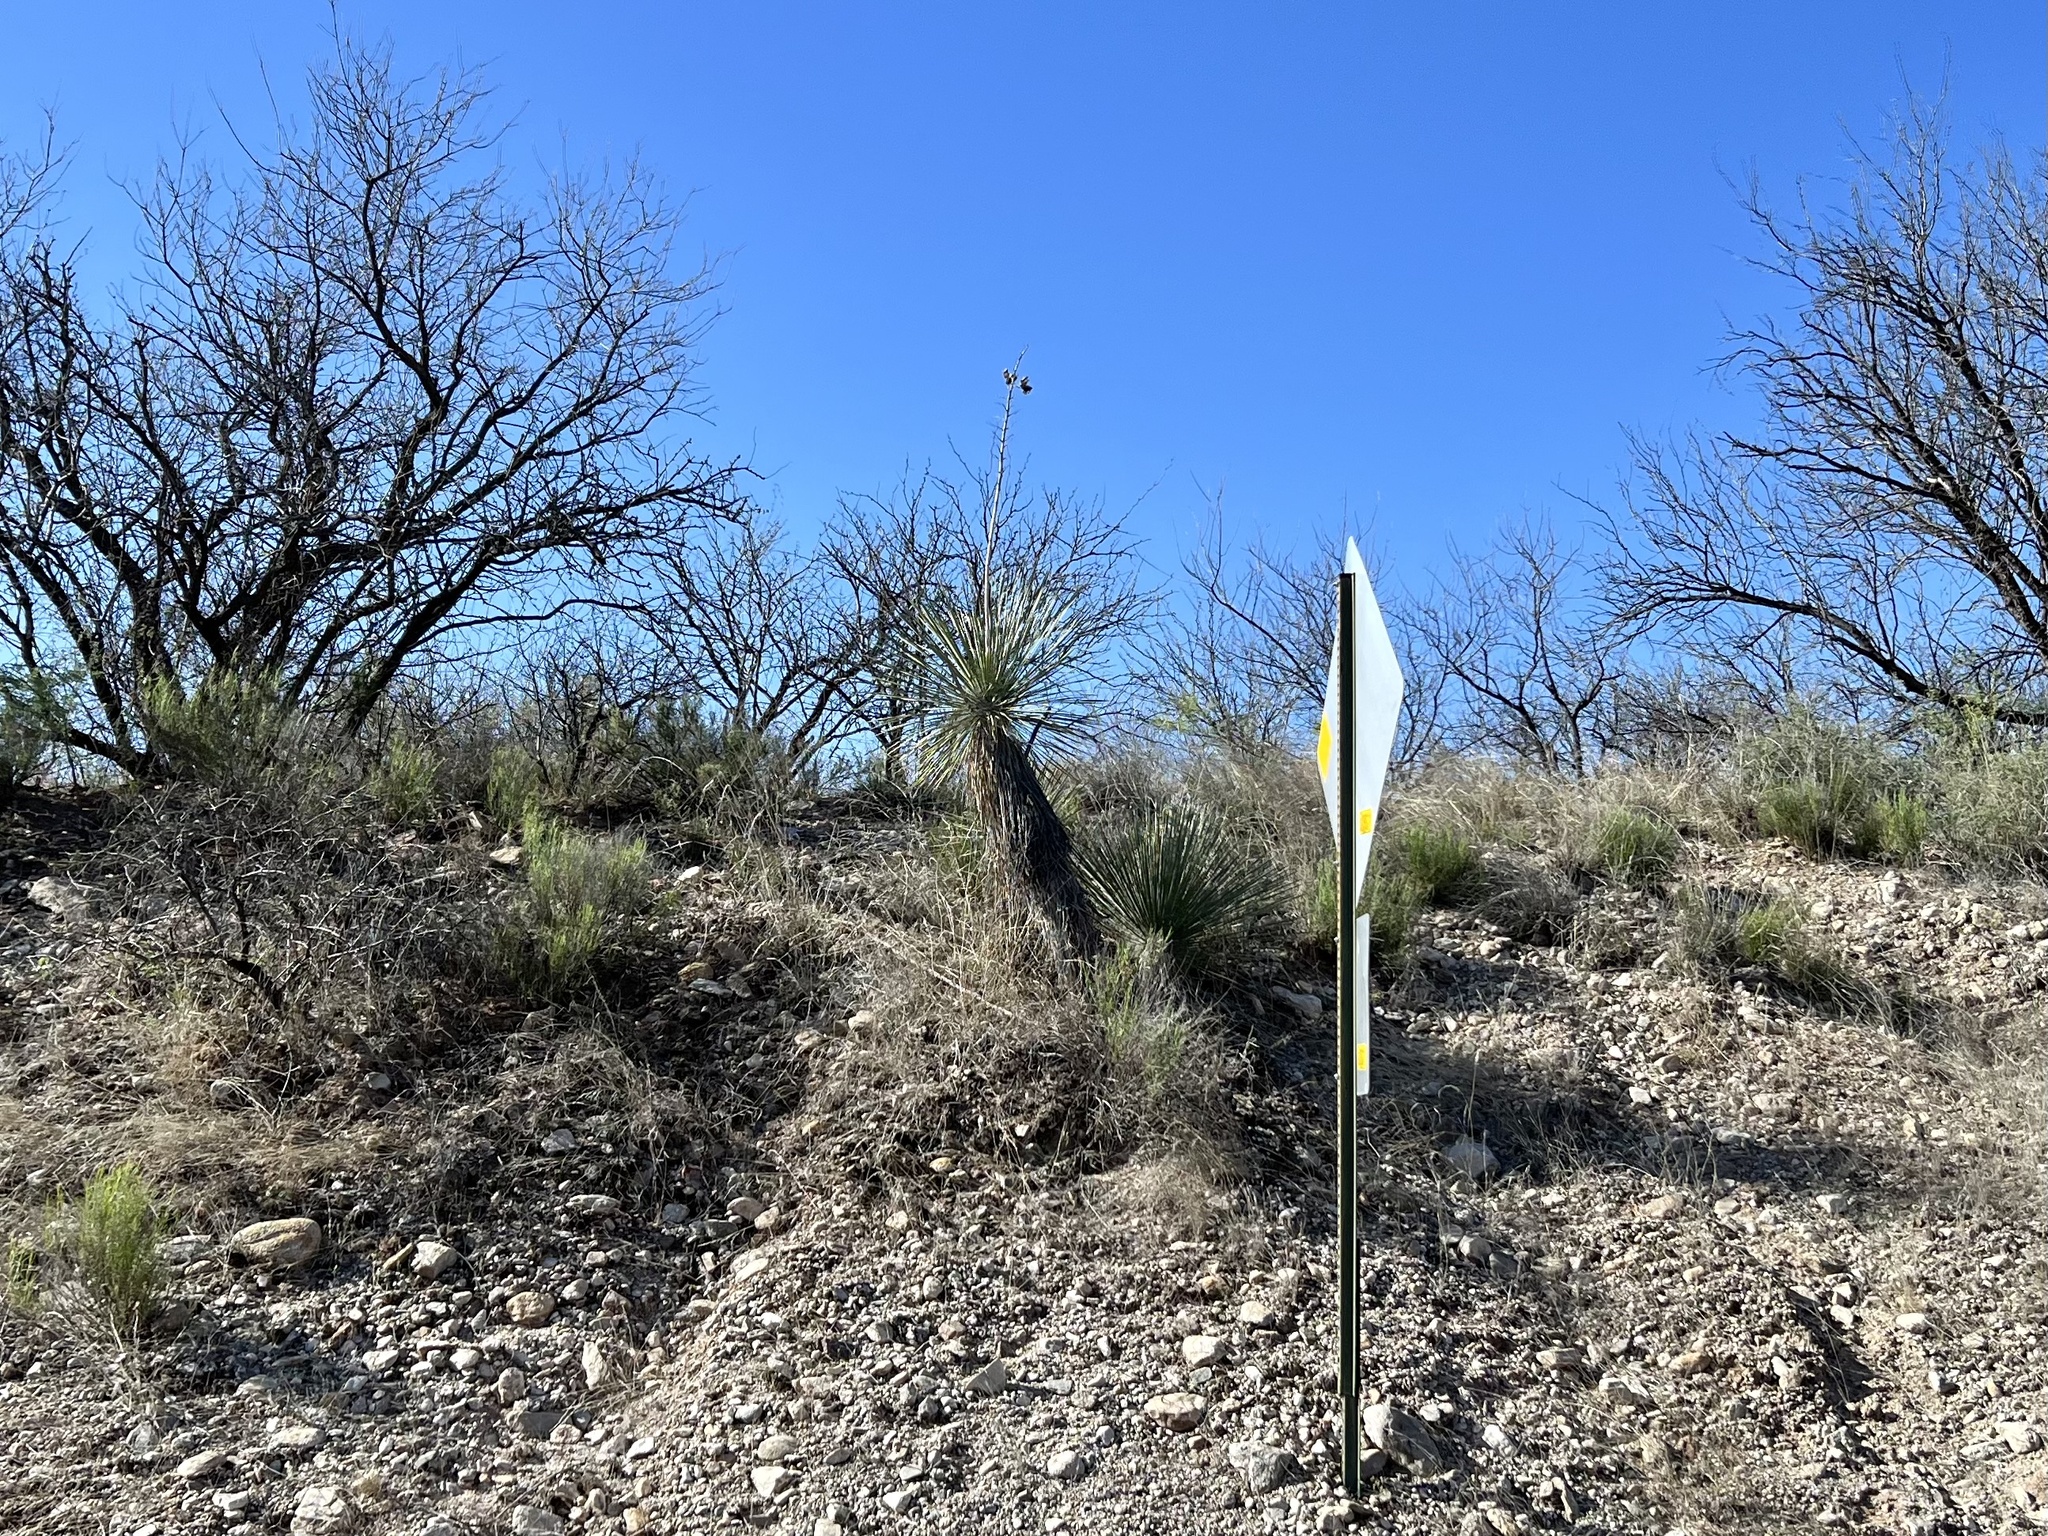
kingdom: Plantae
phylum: Tracheophyta
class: Liliopsida
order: Asparagales
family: Asparagaceae
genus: Yucca
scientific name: Yucca elata
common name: Palmella
